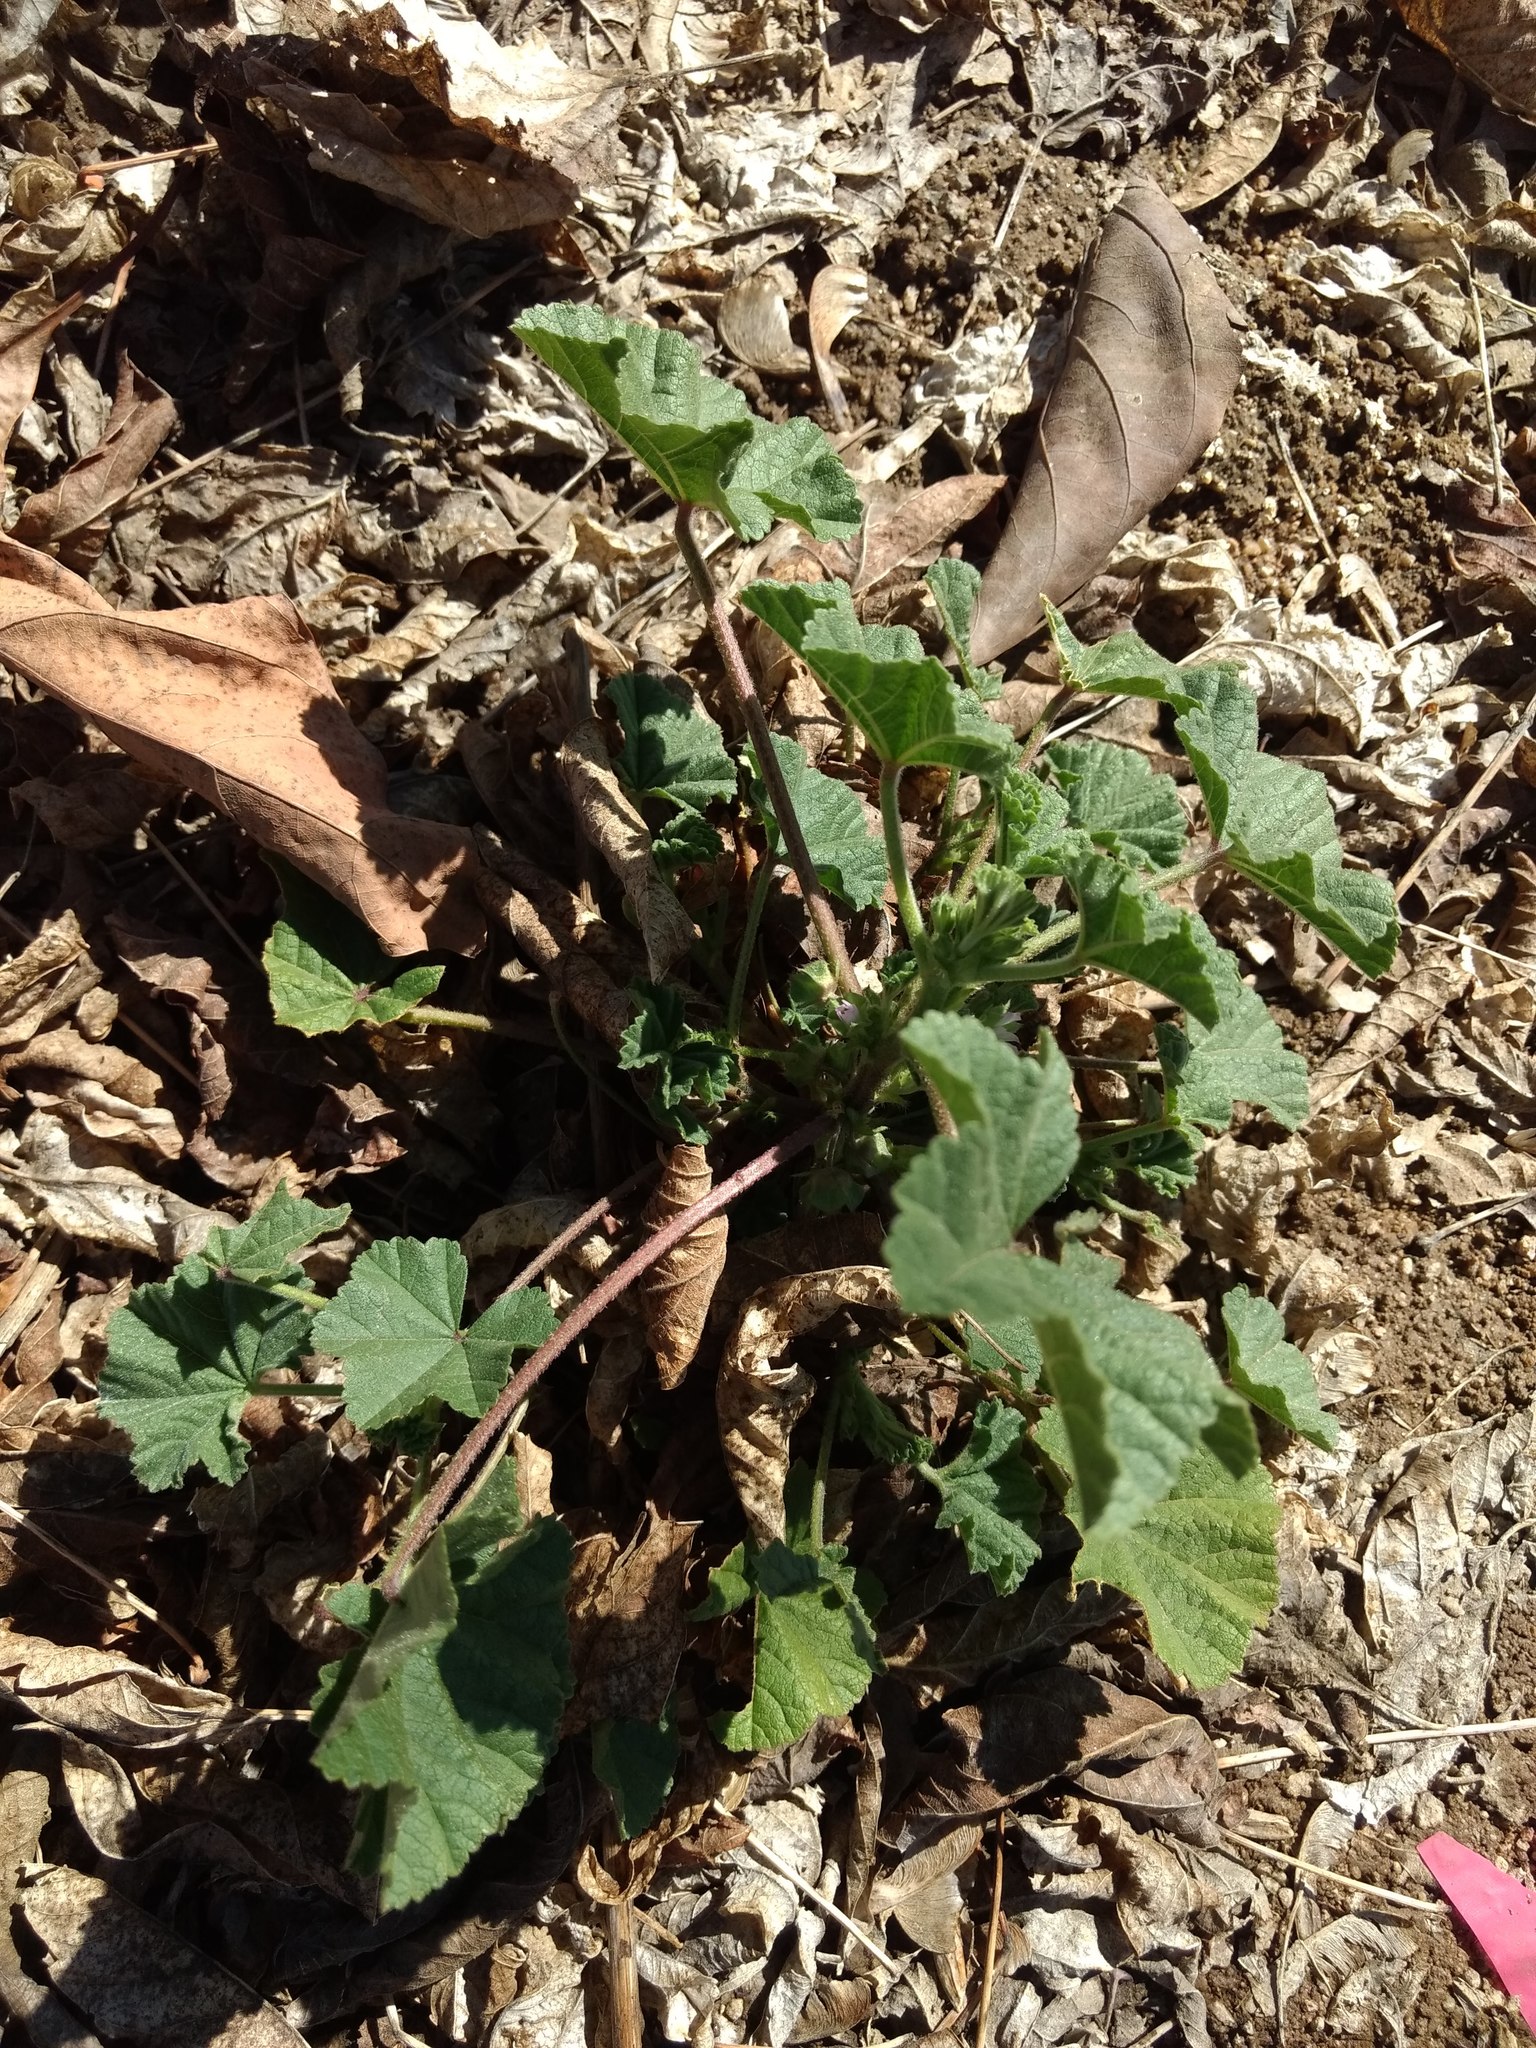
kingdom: Plantae
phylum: Tracheophyta
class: Magnoliopsida
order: Malvales
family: Malvaceae
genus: Malva
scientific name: Malva parviflora
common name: Least mallow
